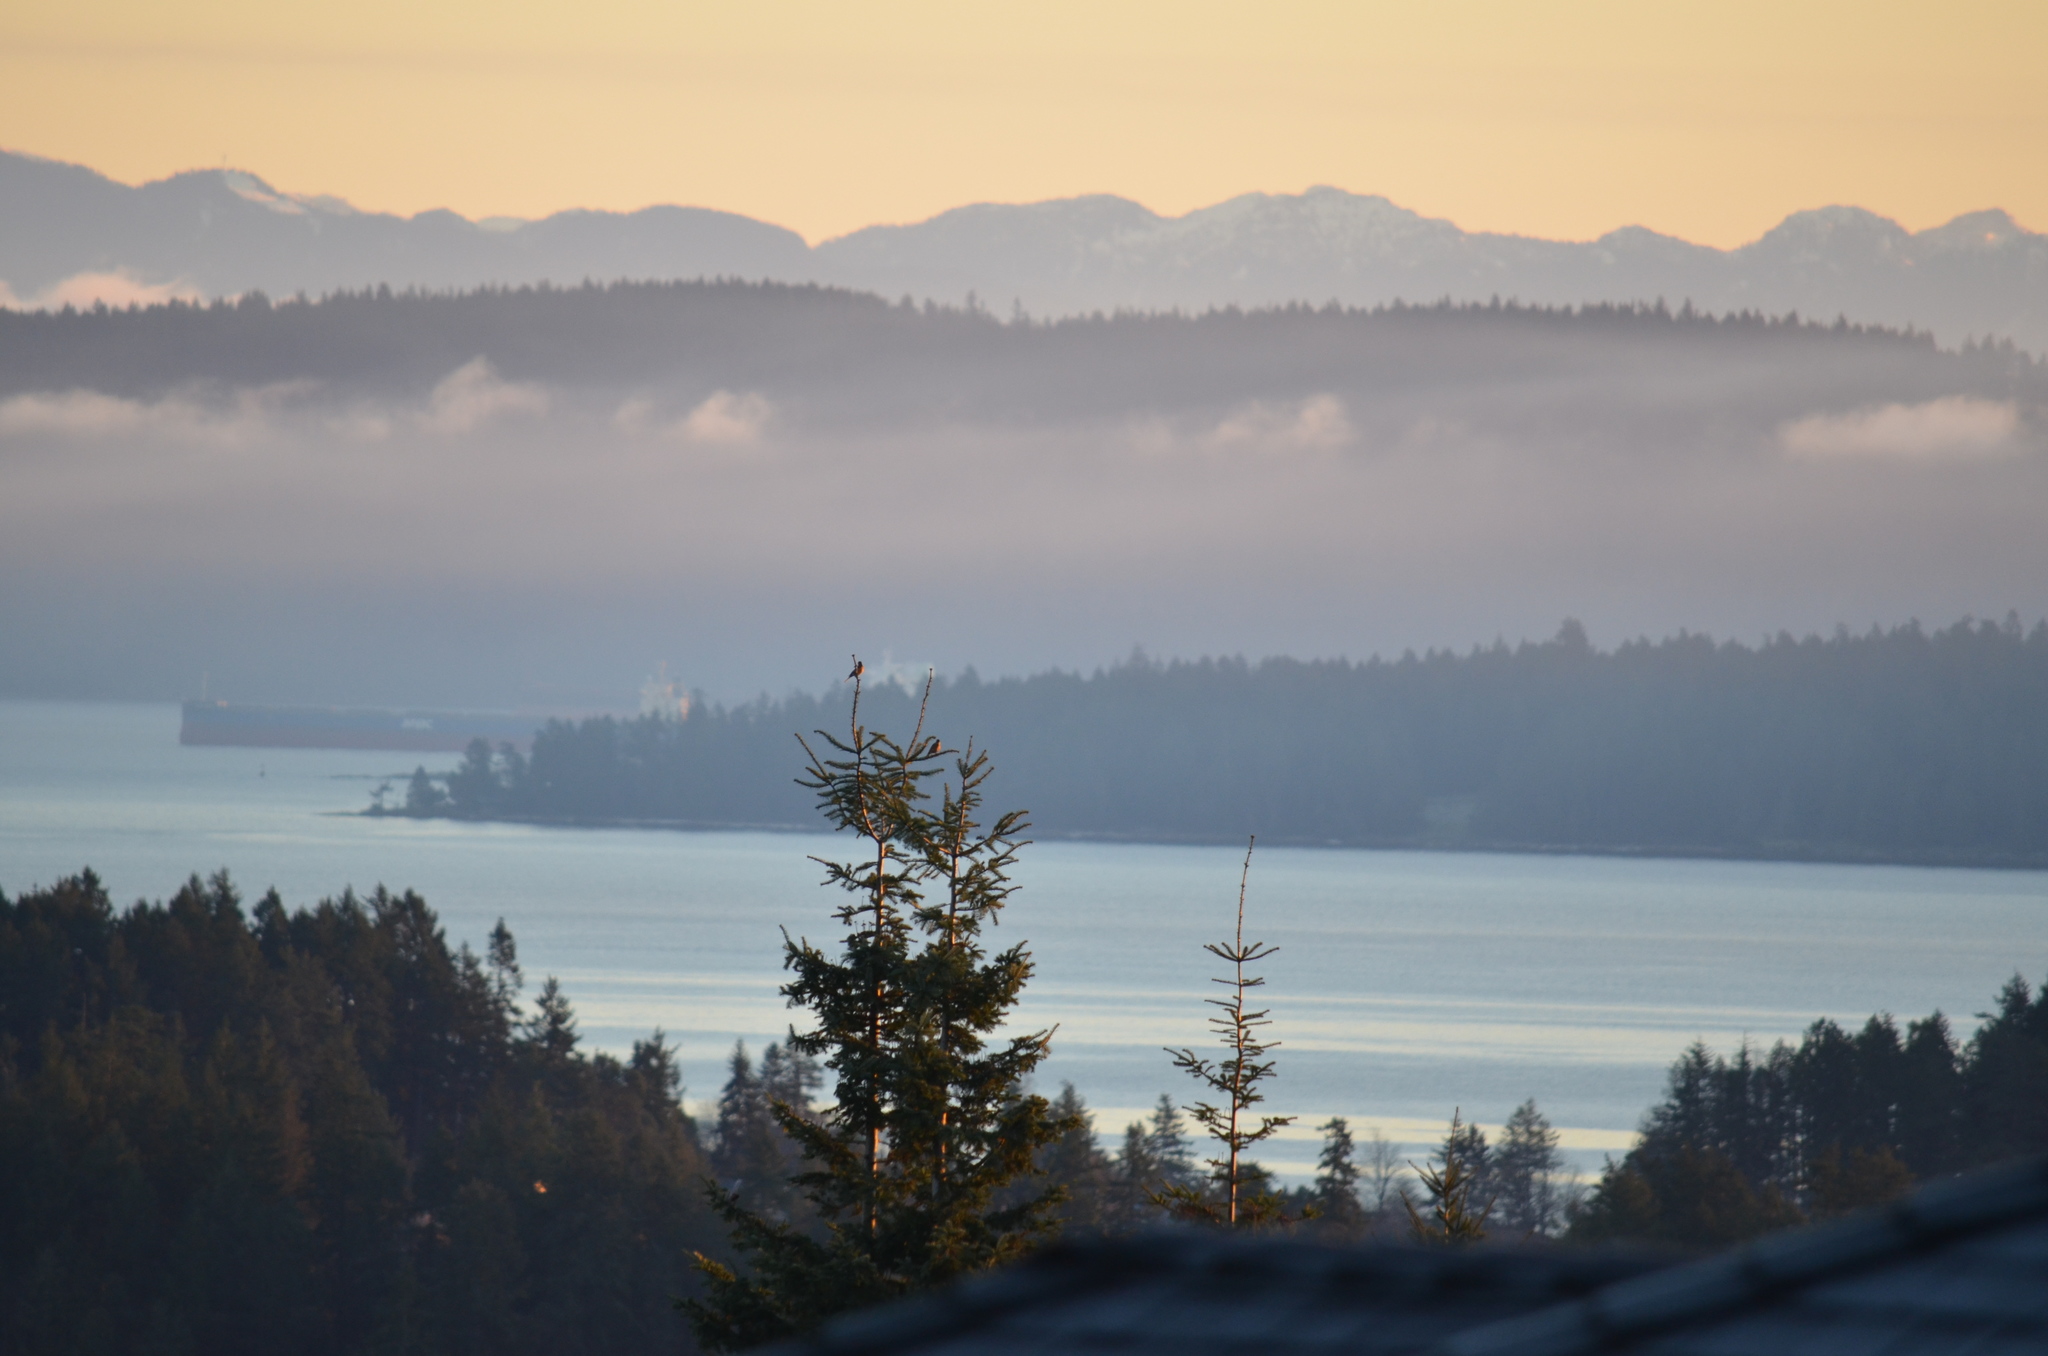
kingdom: Animalia
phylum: Chordata
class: Aves
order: Passeriformes
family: Turdidae
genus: Turdus
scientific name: Turdus migratorius
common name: American robin
